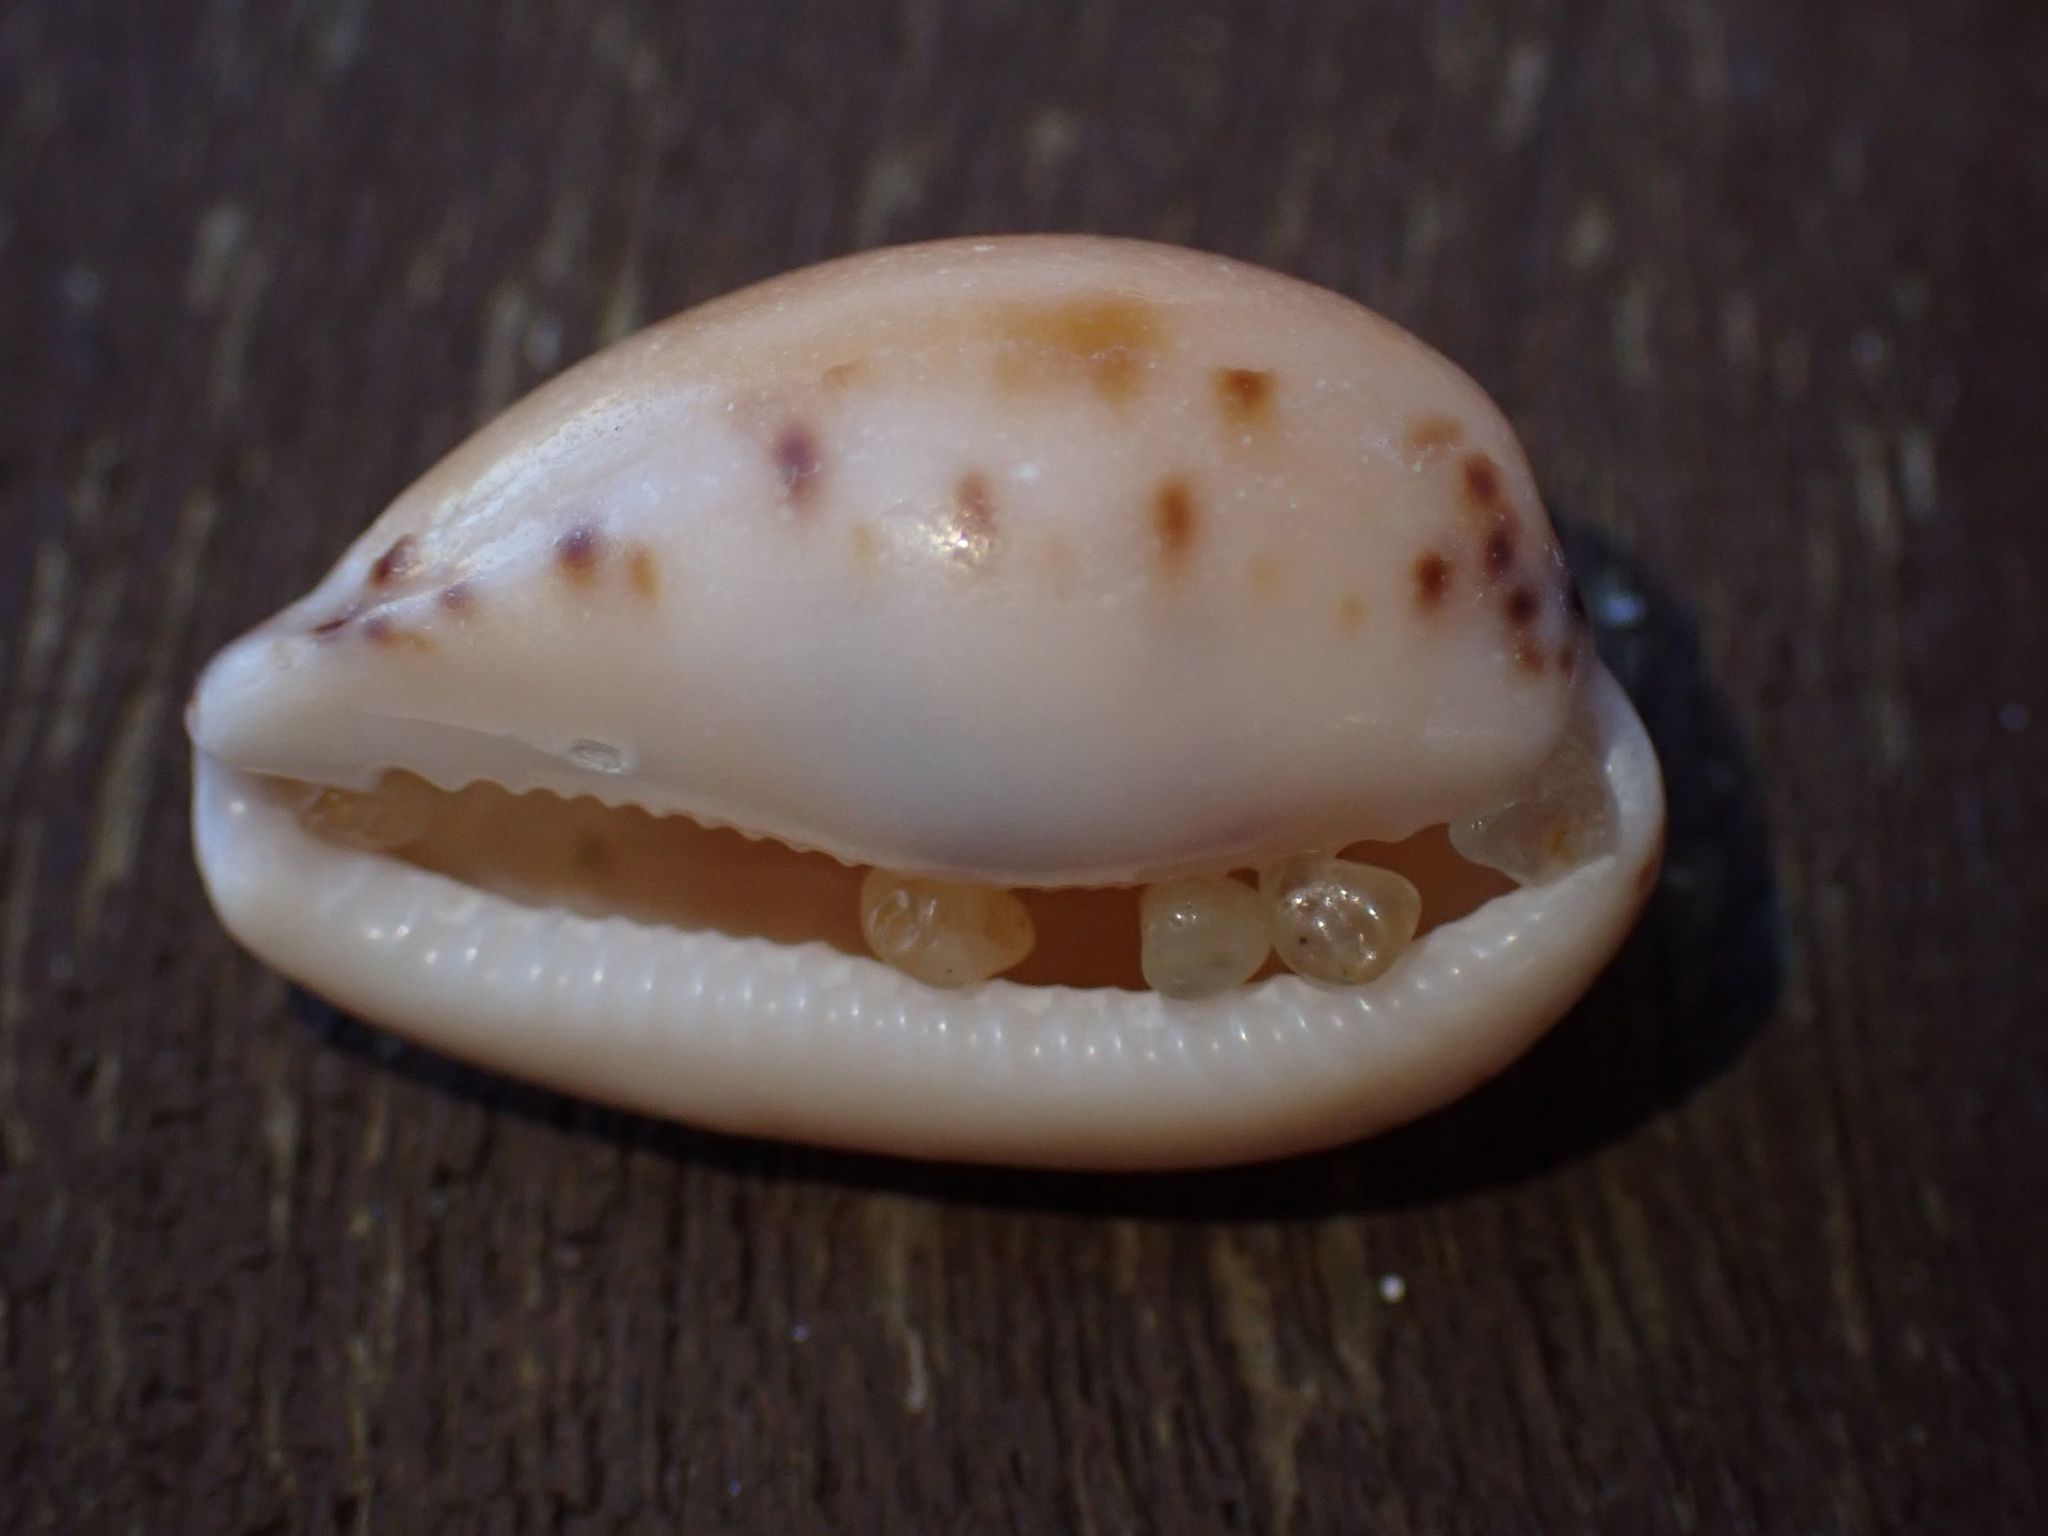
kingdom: Animalia
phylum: Mollusca
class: Gastropoda
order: Littorinimorpha
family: Cypraeidae
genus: Notocypraea
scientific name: Notocypraea comptonii
